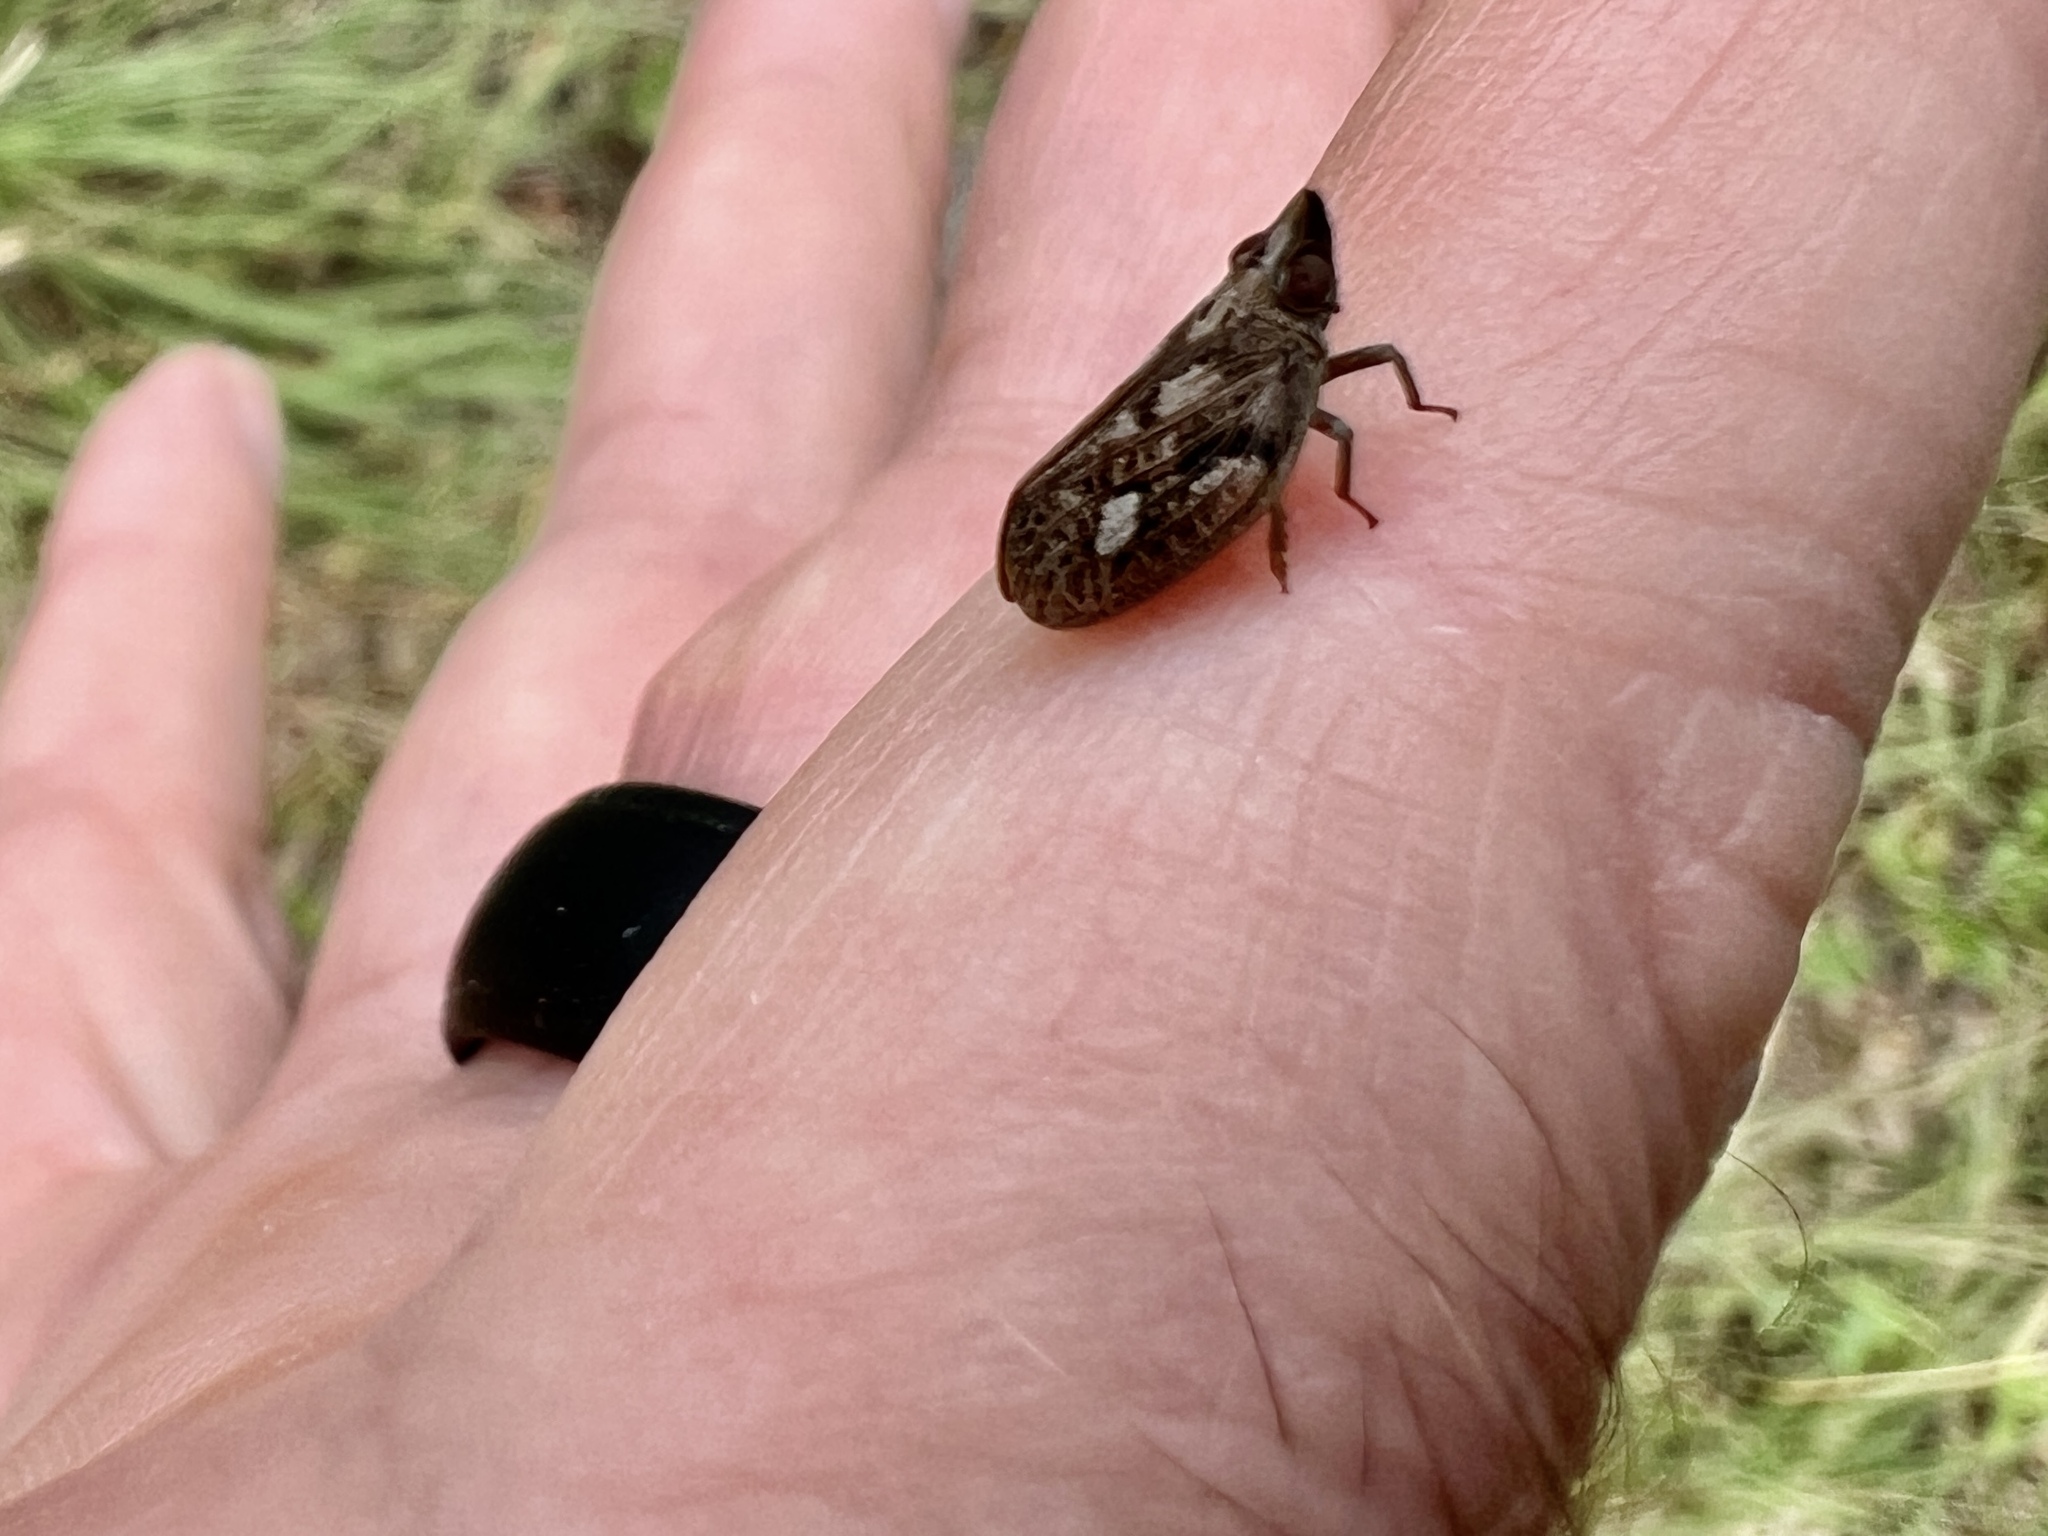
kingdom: Animalia
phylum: Arthropoda
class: Insecta
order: Hemiptera
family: Issidae
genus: Fowlerium
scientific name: Fowlerium acutum
